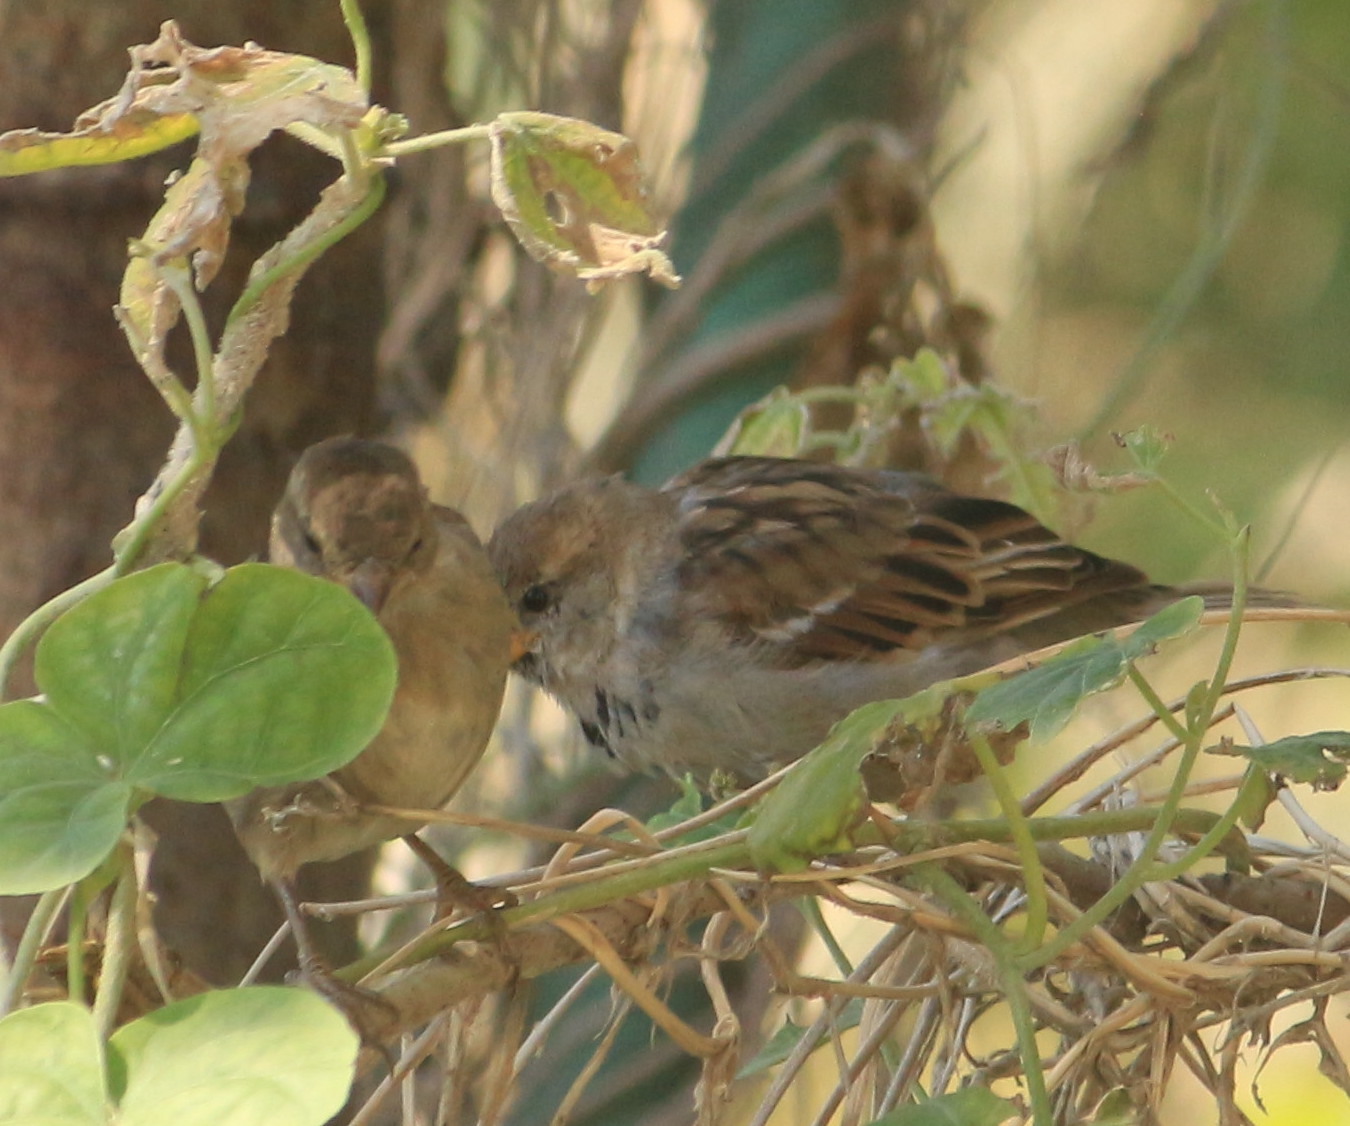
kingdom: Animalia
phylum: Chordata
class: Aves
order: Passeriformes
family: Passeridae
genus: Passer
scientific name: Passer domesticus
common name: House sparrow
